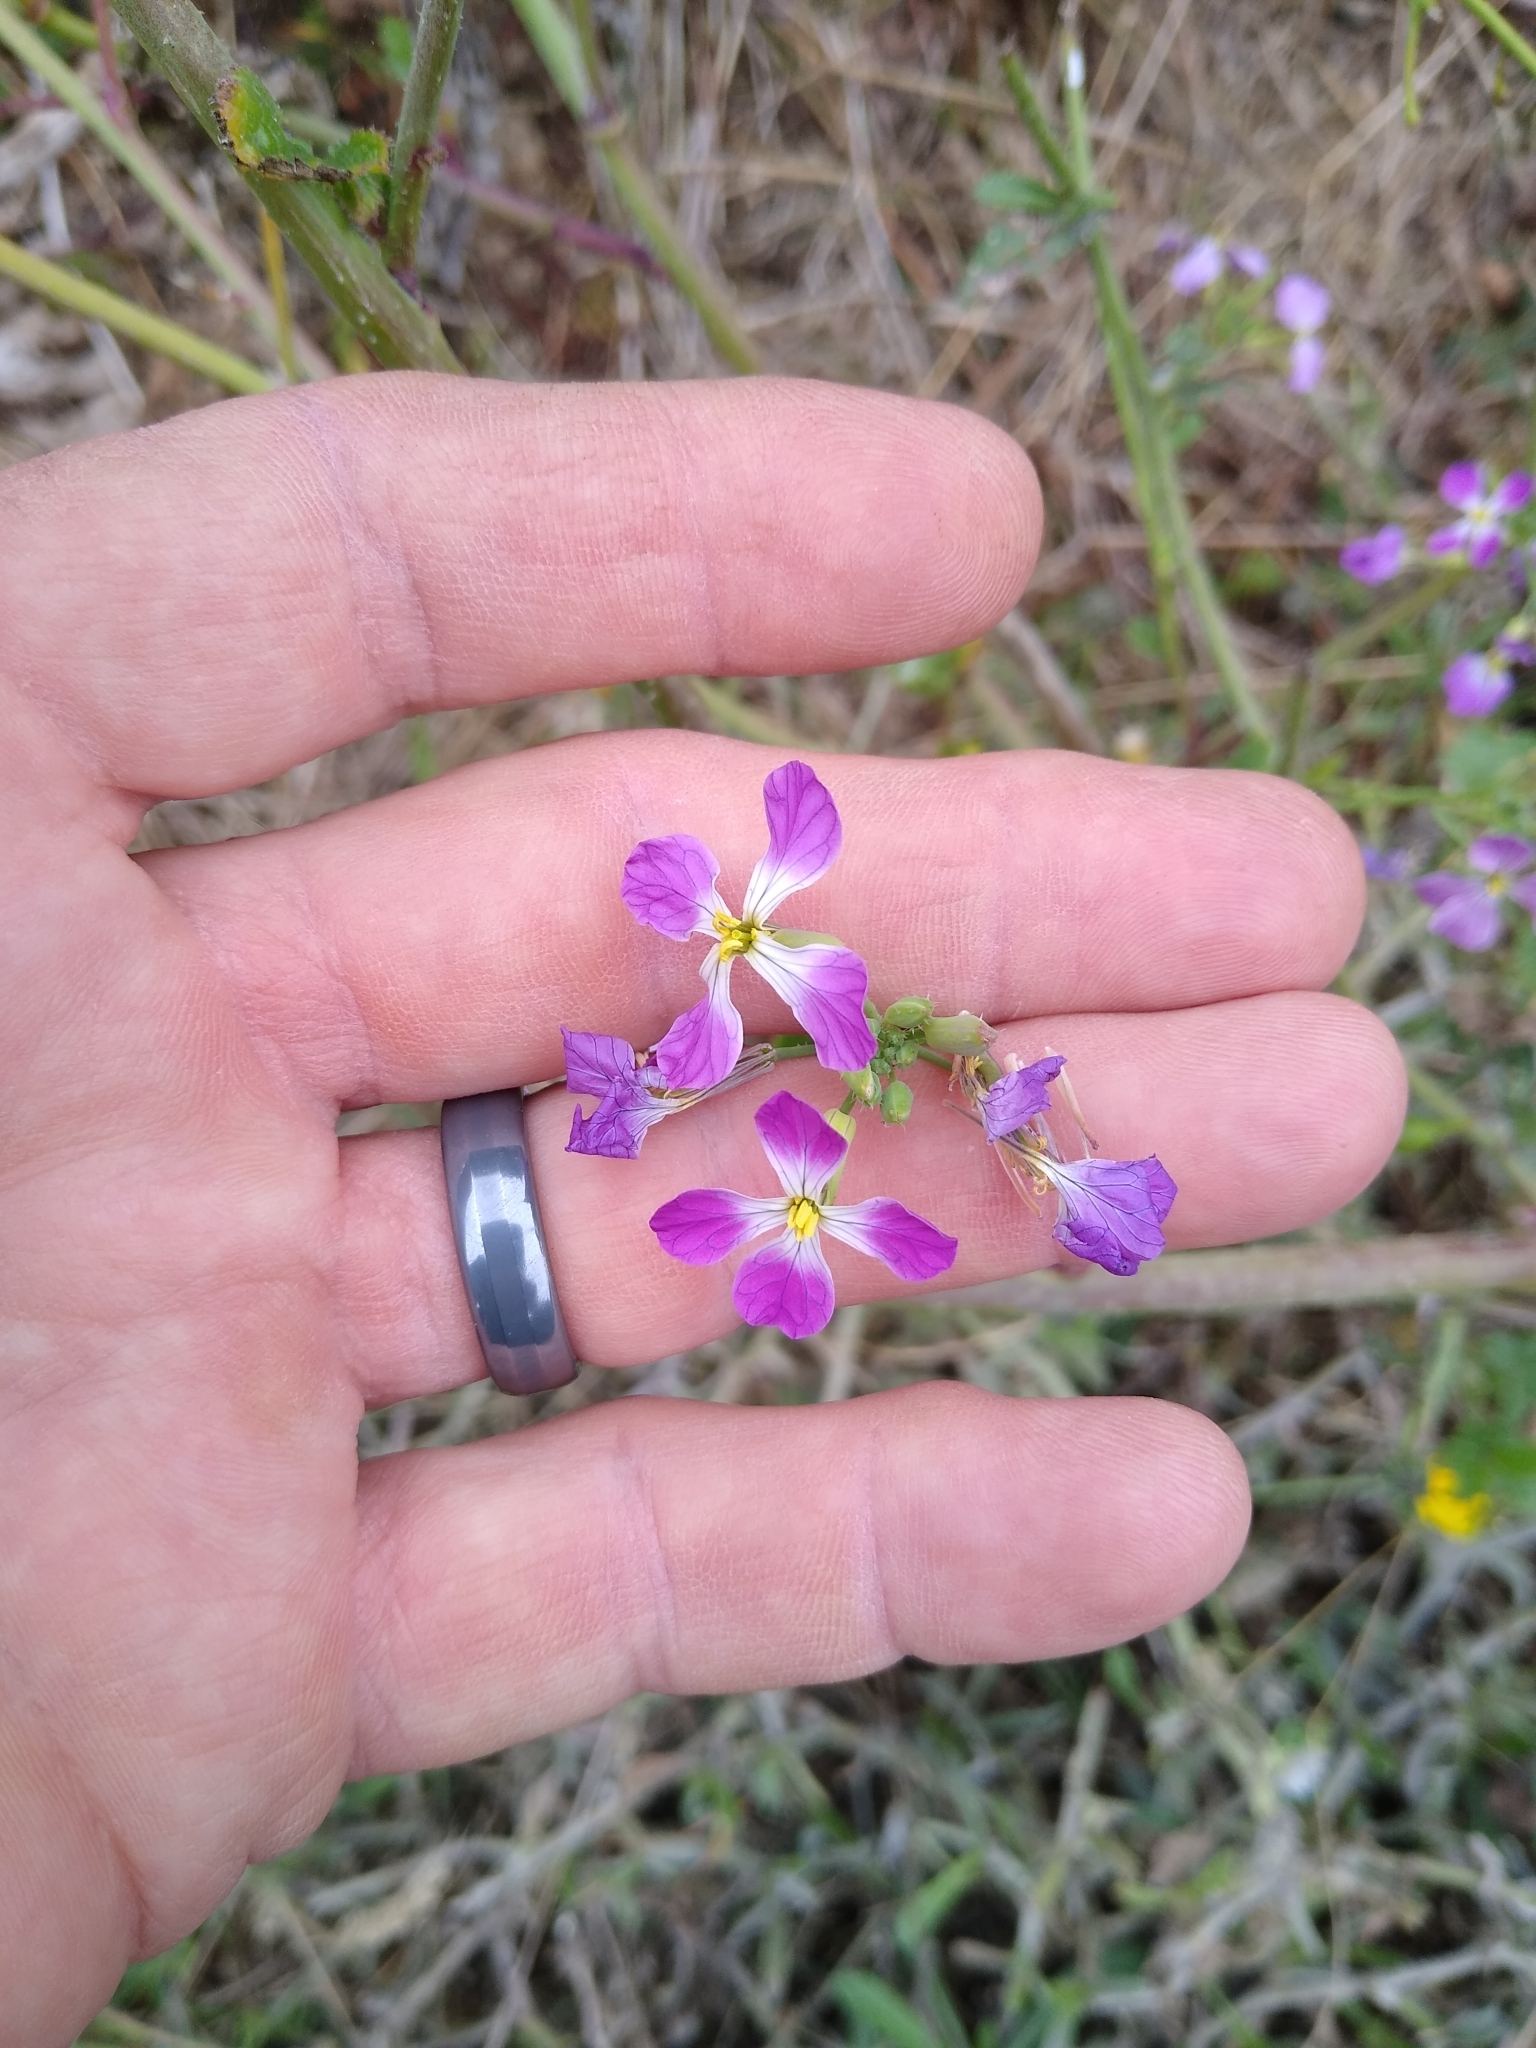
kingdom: Plantae
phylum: Tracheophyta
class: Magnoliopsida
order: Brassicales
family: Brassicaceae
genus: Raphanus
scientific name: Raphanus sativus
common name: Cultivated radish
